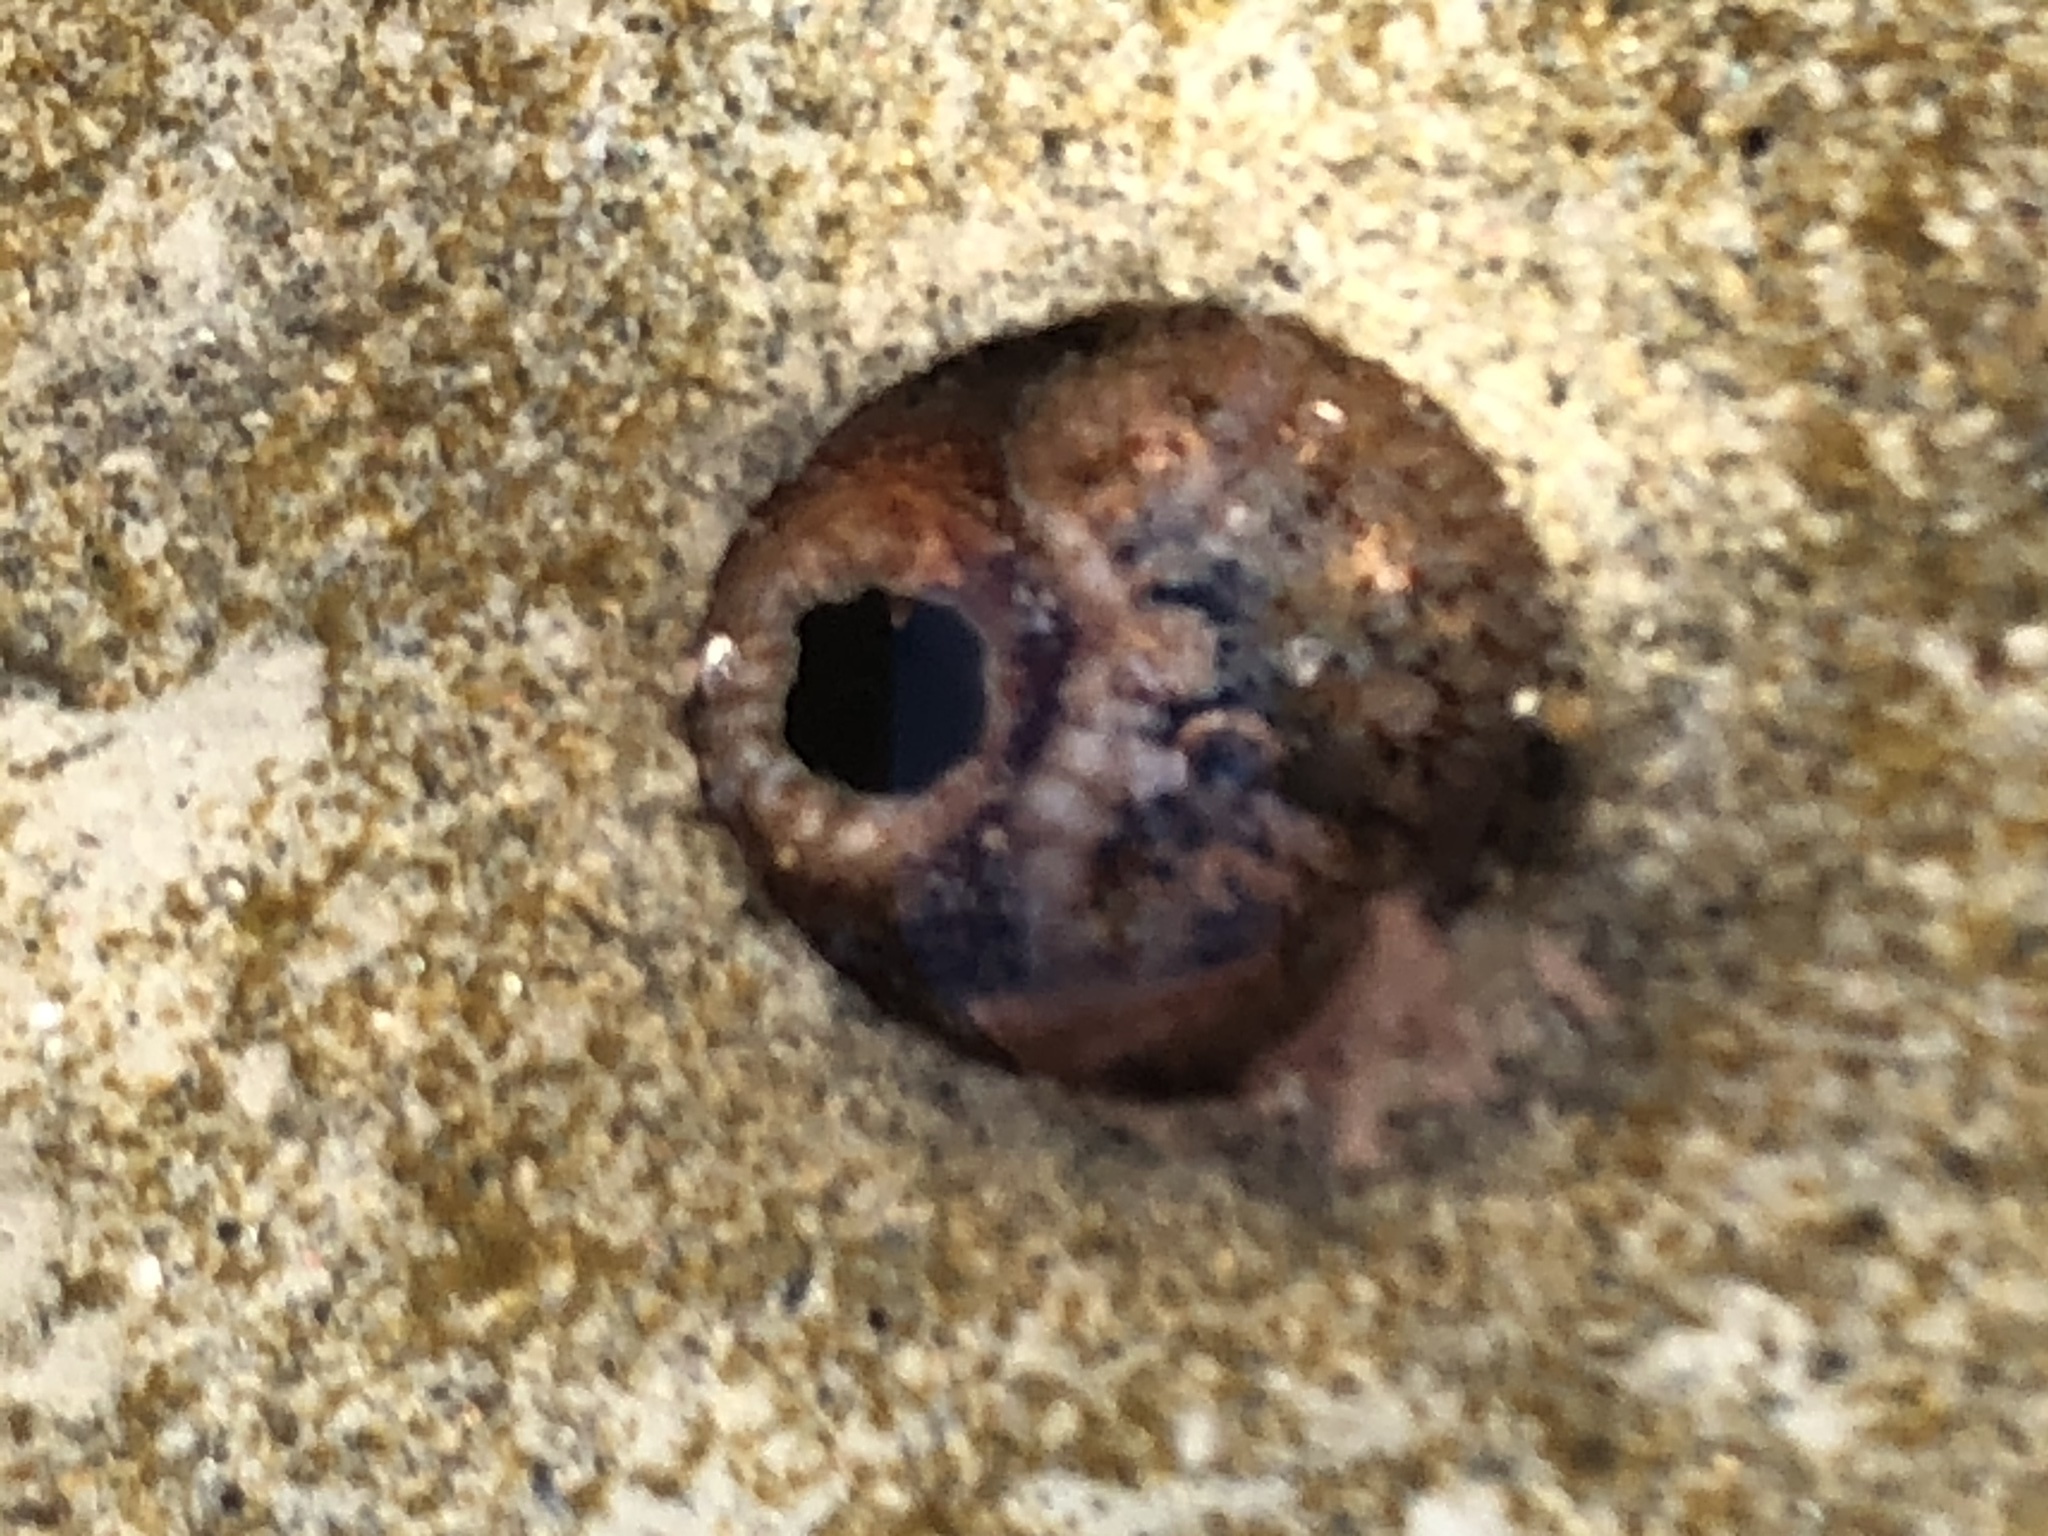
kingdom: Animalia
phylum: Mollusca
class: Bivalvia
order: Myida
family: Pholadidae
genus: Parapholas
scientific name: Parapholas californica
